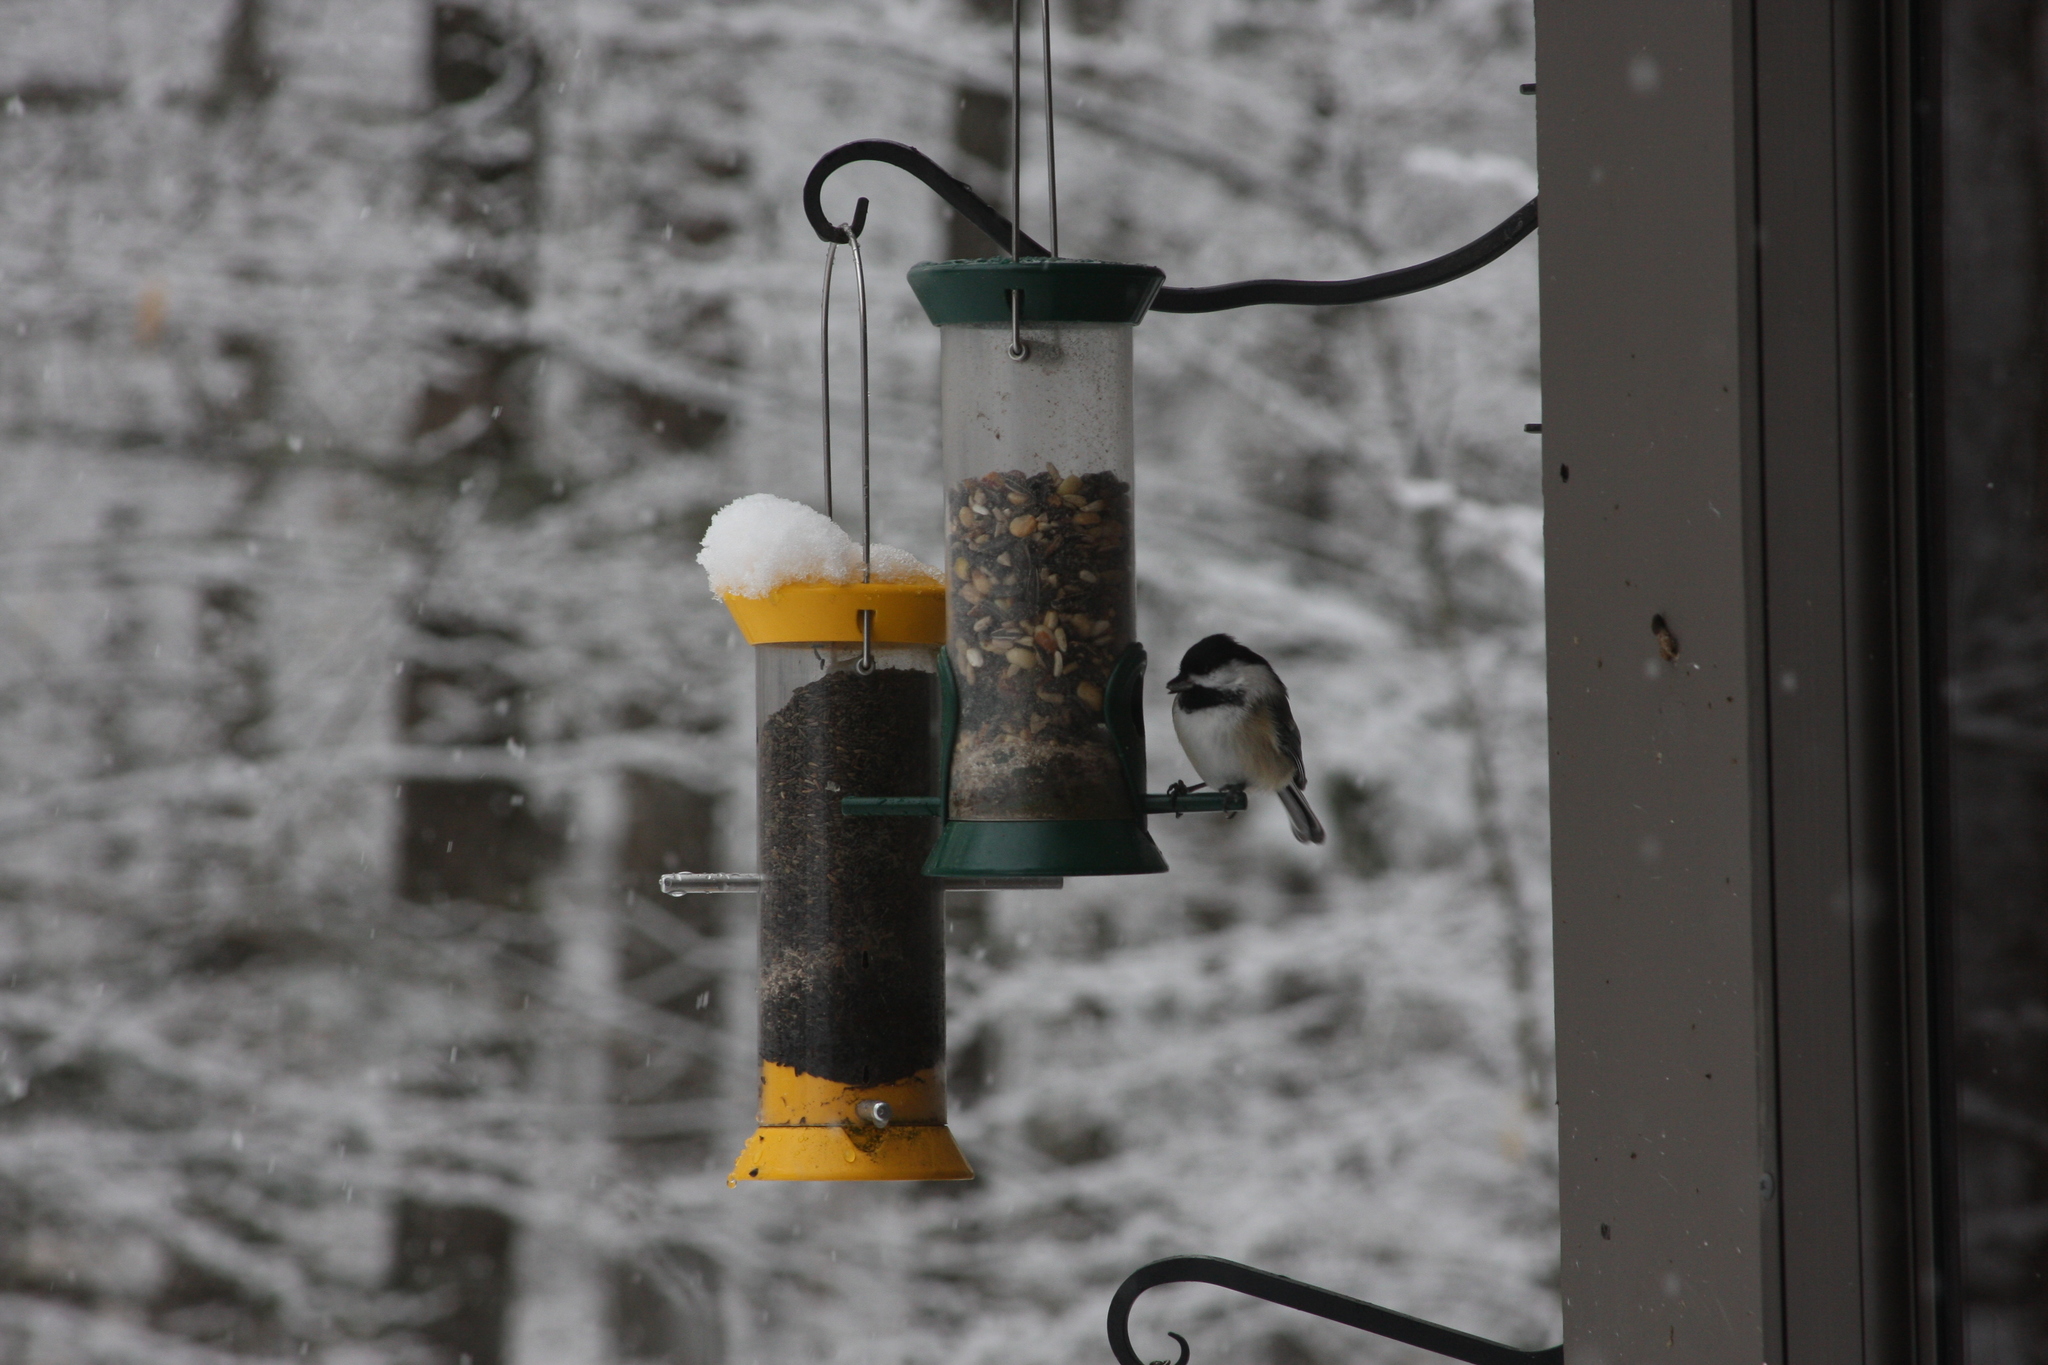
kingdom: Animalia
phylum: Chordata
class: Aves
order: Passeriformes
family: Paridae
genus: Poecile
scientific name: Poecile atricapillus
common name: Black-capped chickadee
